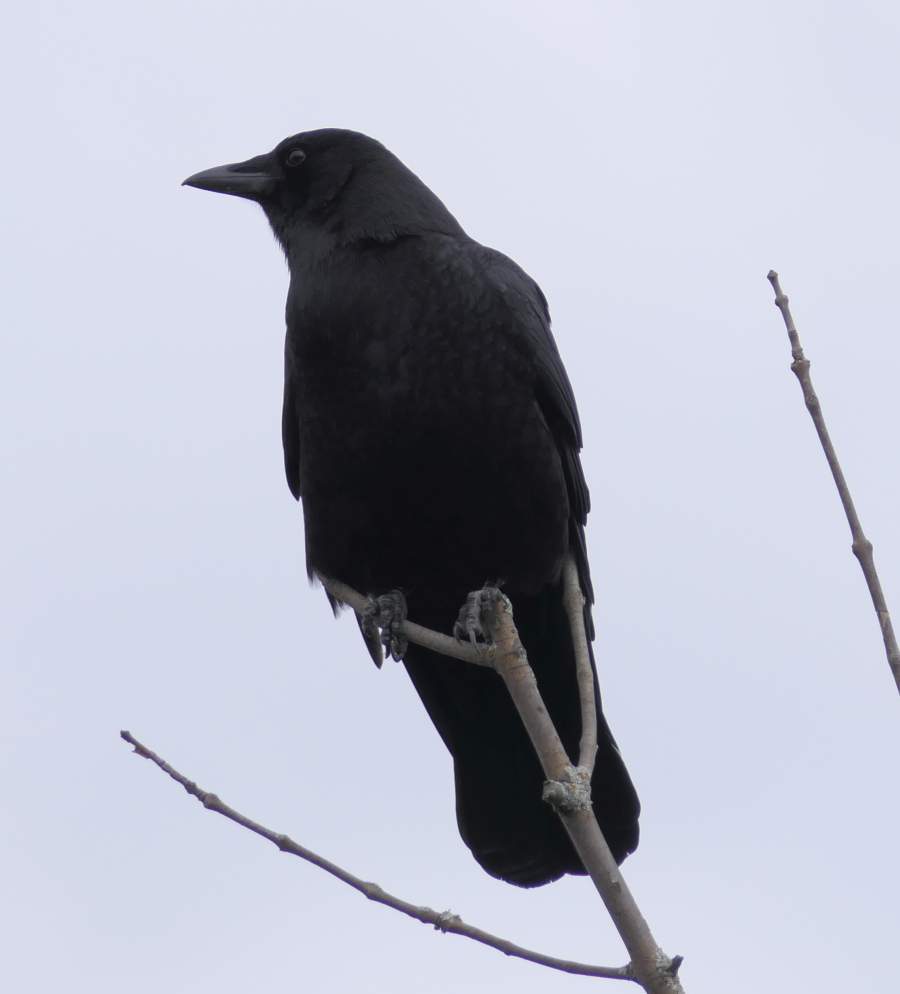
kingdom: Animalia
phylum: Chordata
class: Aves
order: Passeriformes
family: Corvidae
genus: Corvus
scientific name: Corvus brachyrhynchos
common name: American crow
